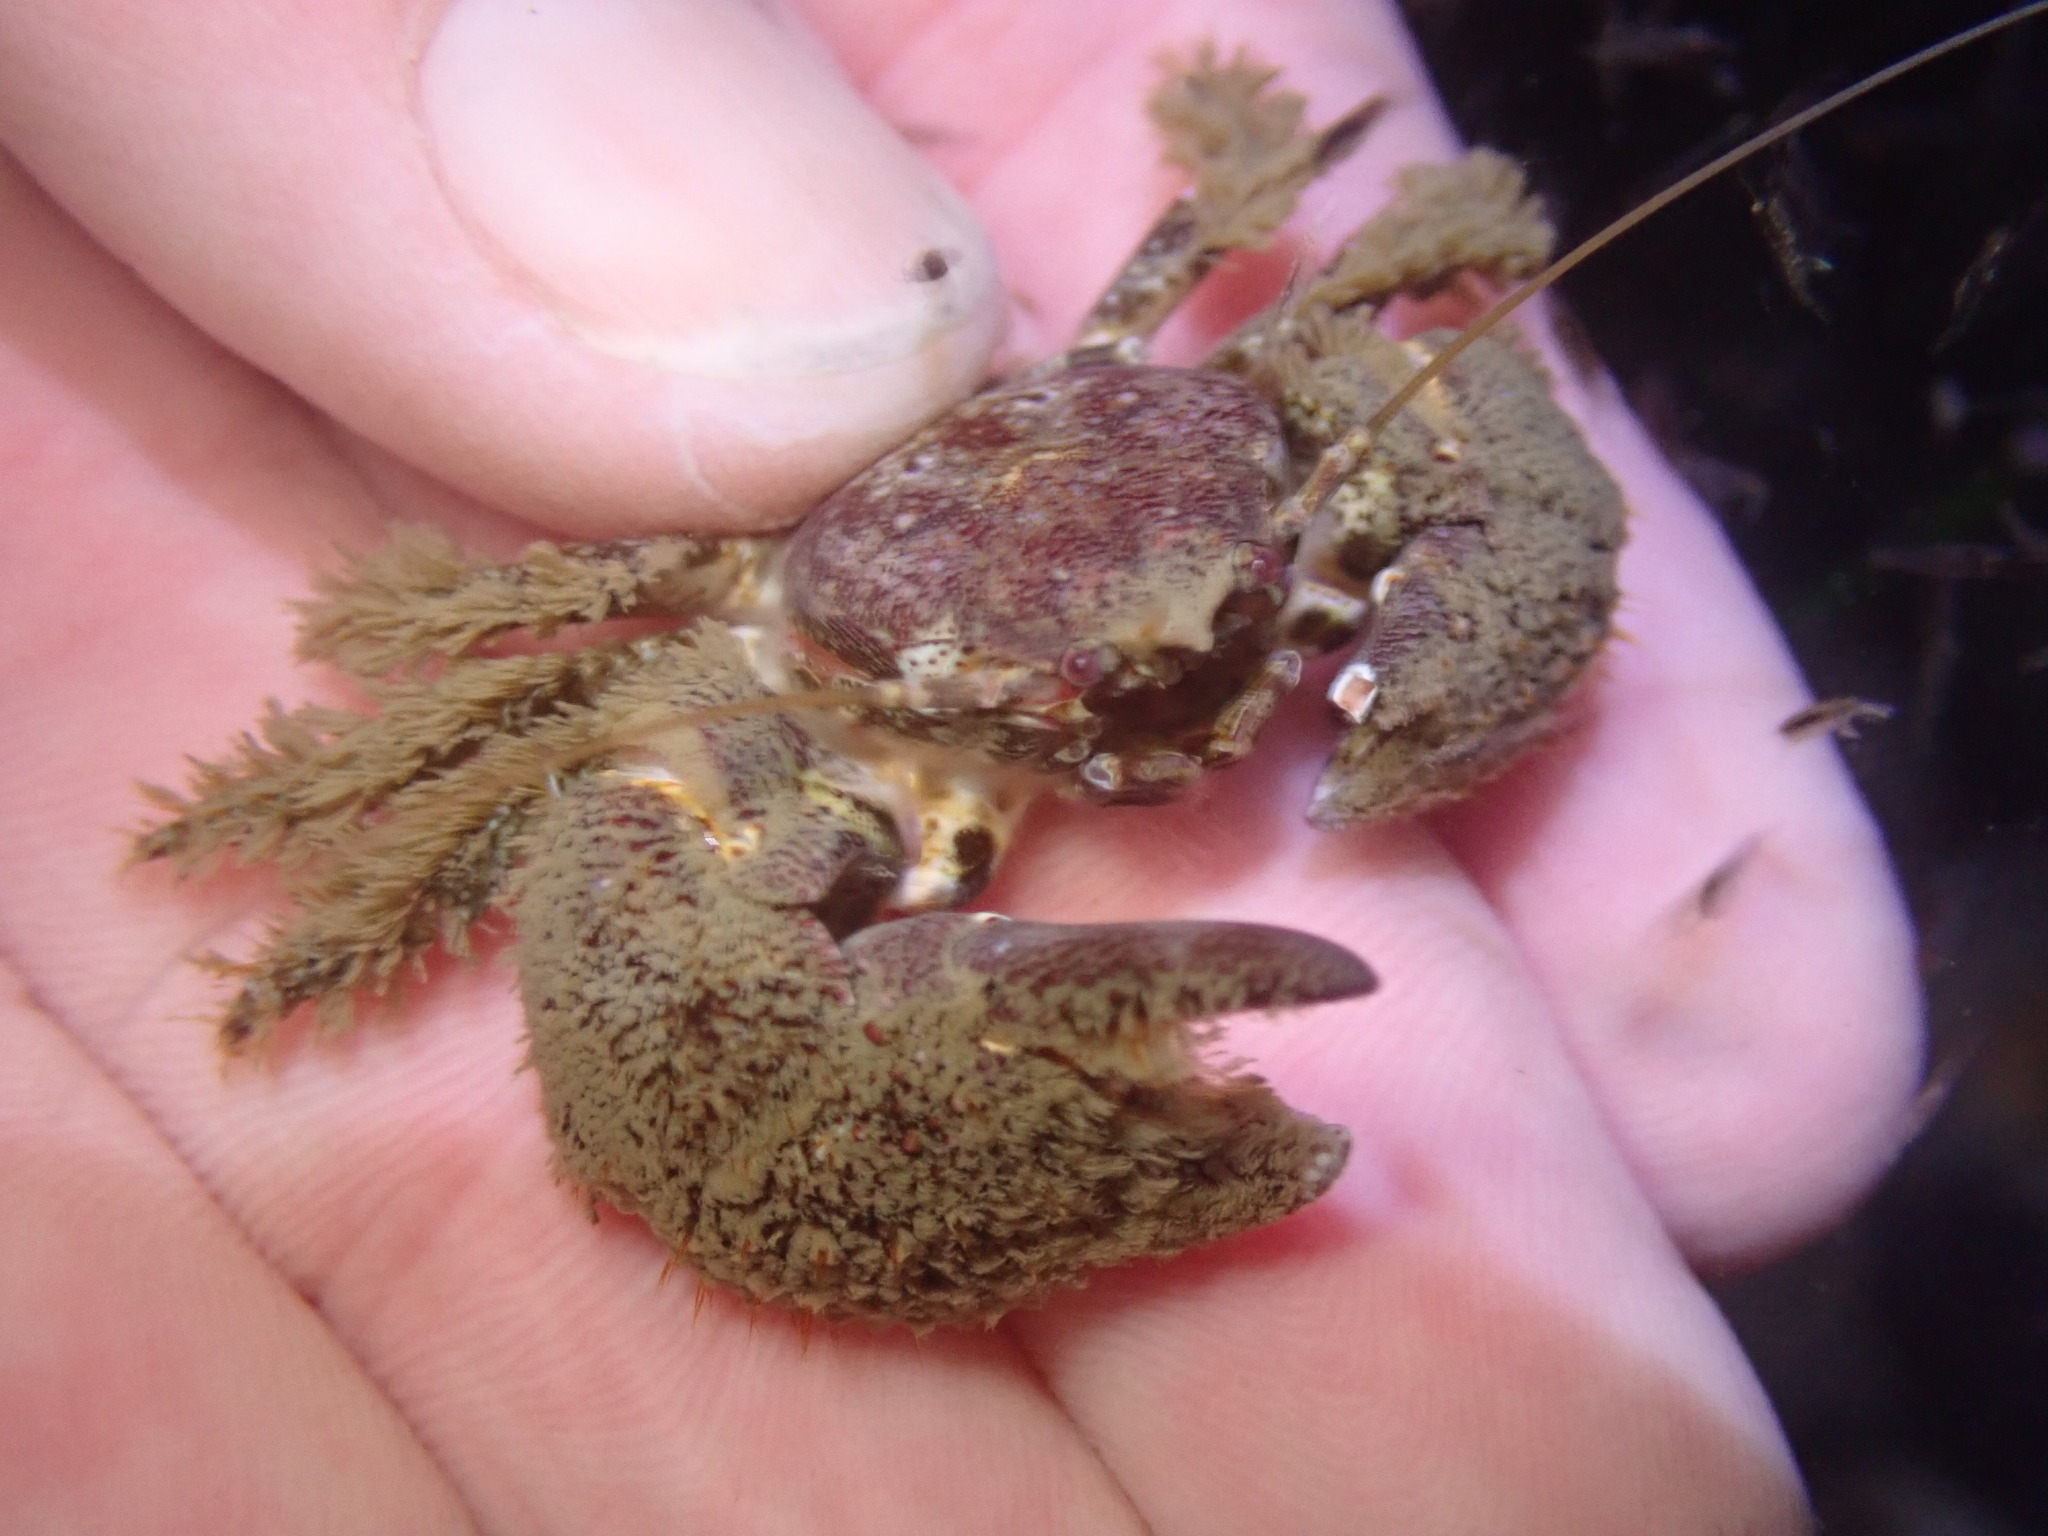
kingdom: Animalia
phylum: Arthropoda
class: Malacostraca
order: Decapoda
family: Porcellanidae
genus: Pachycheles
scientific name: Pachycheles pubescens
